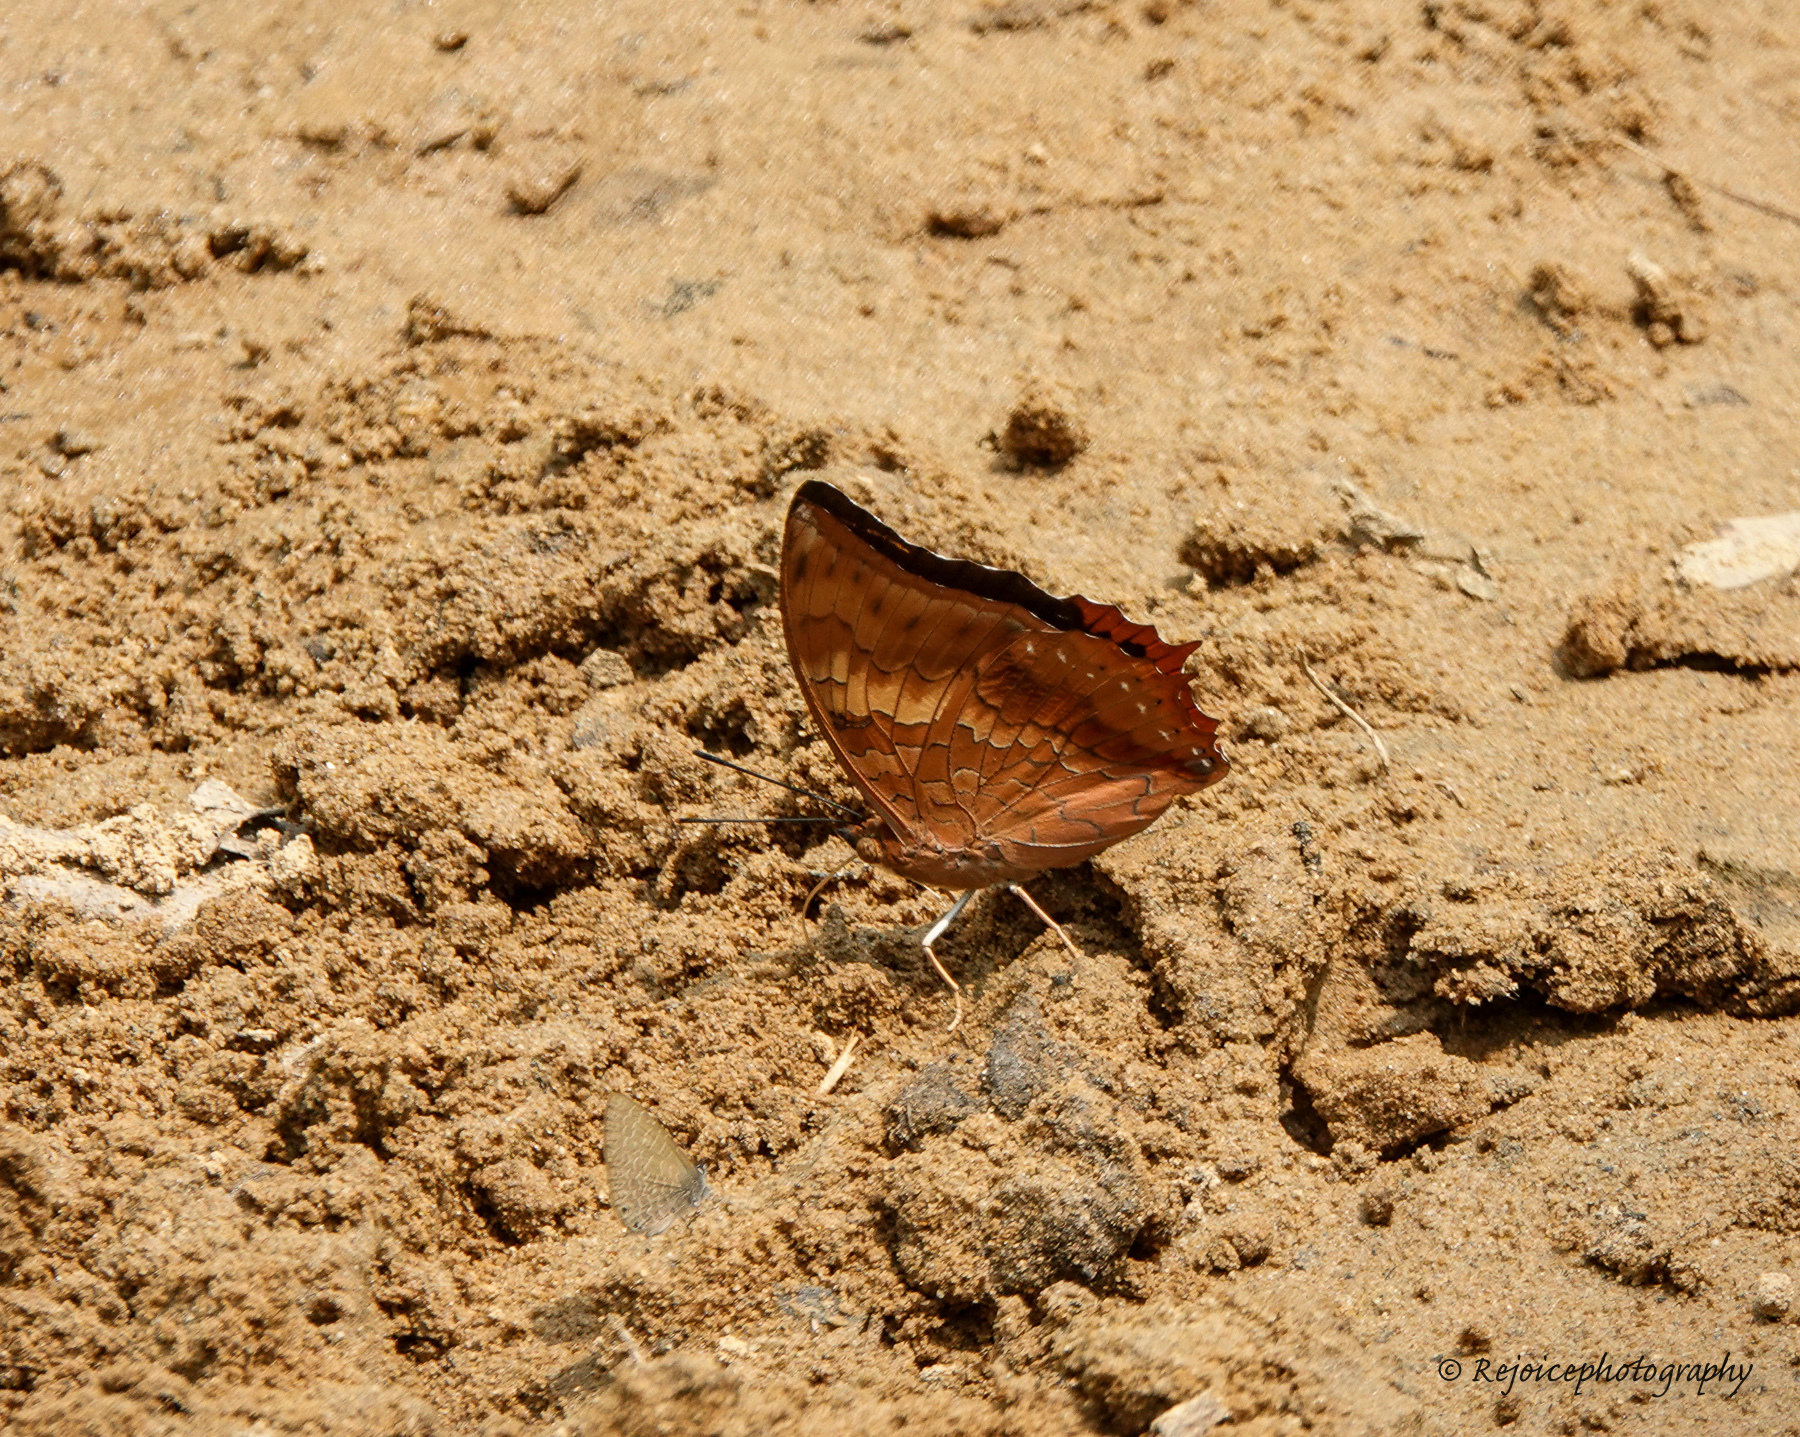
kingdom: Animalia
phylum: Arthropoda
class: Insecta
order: Lepidoptera
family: Nymphalidae
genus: Charaxes
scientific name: Charaxes bernardus
